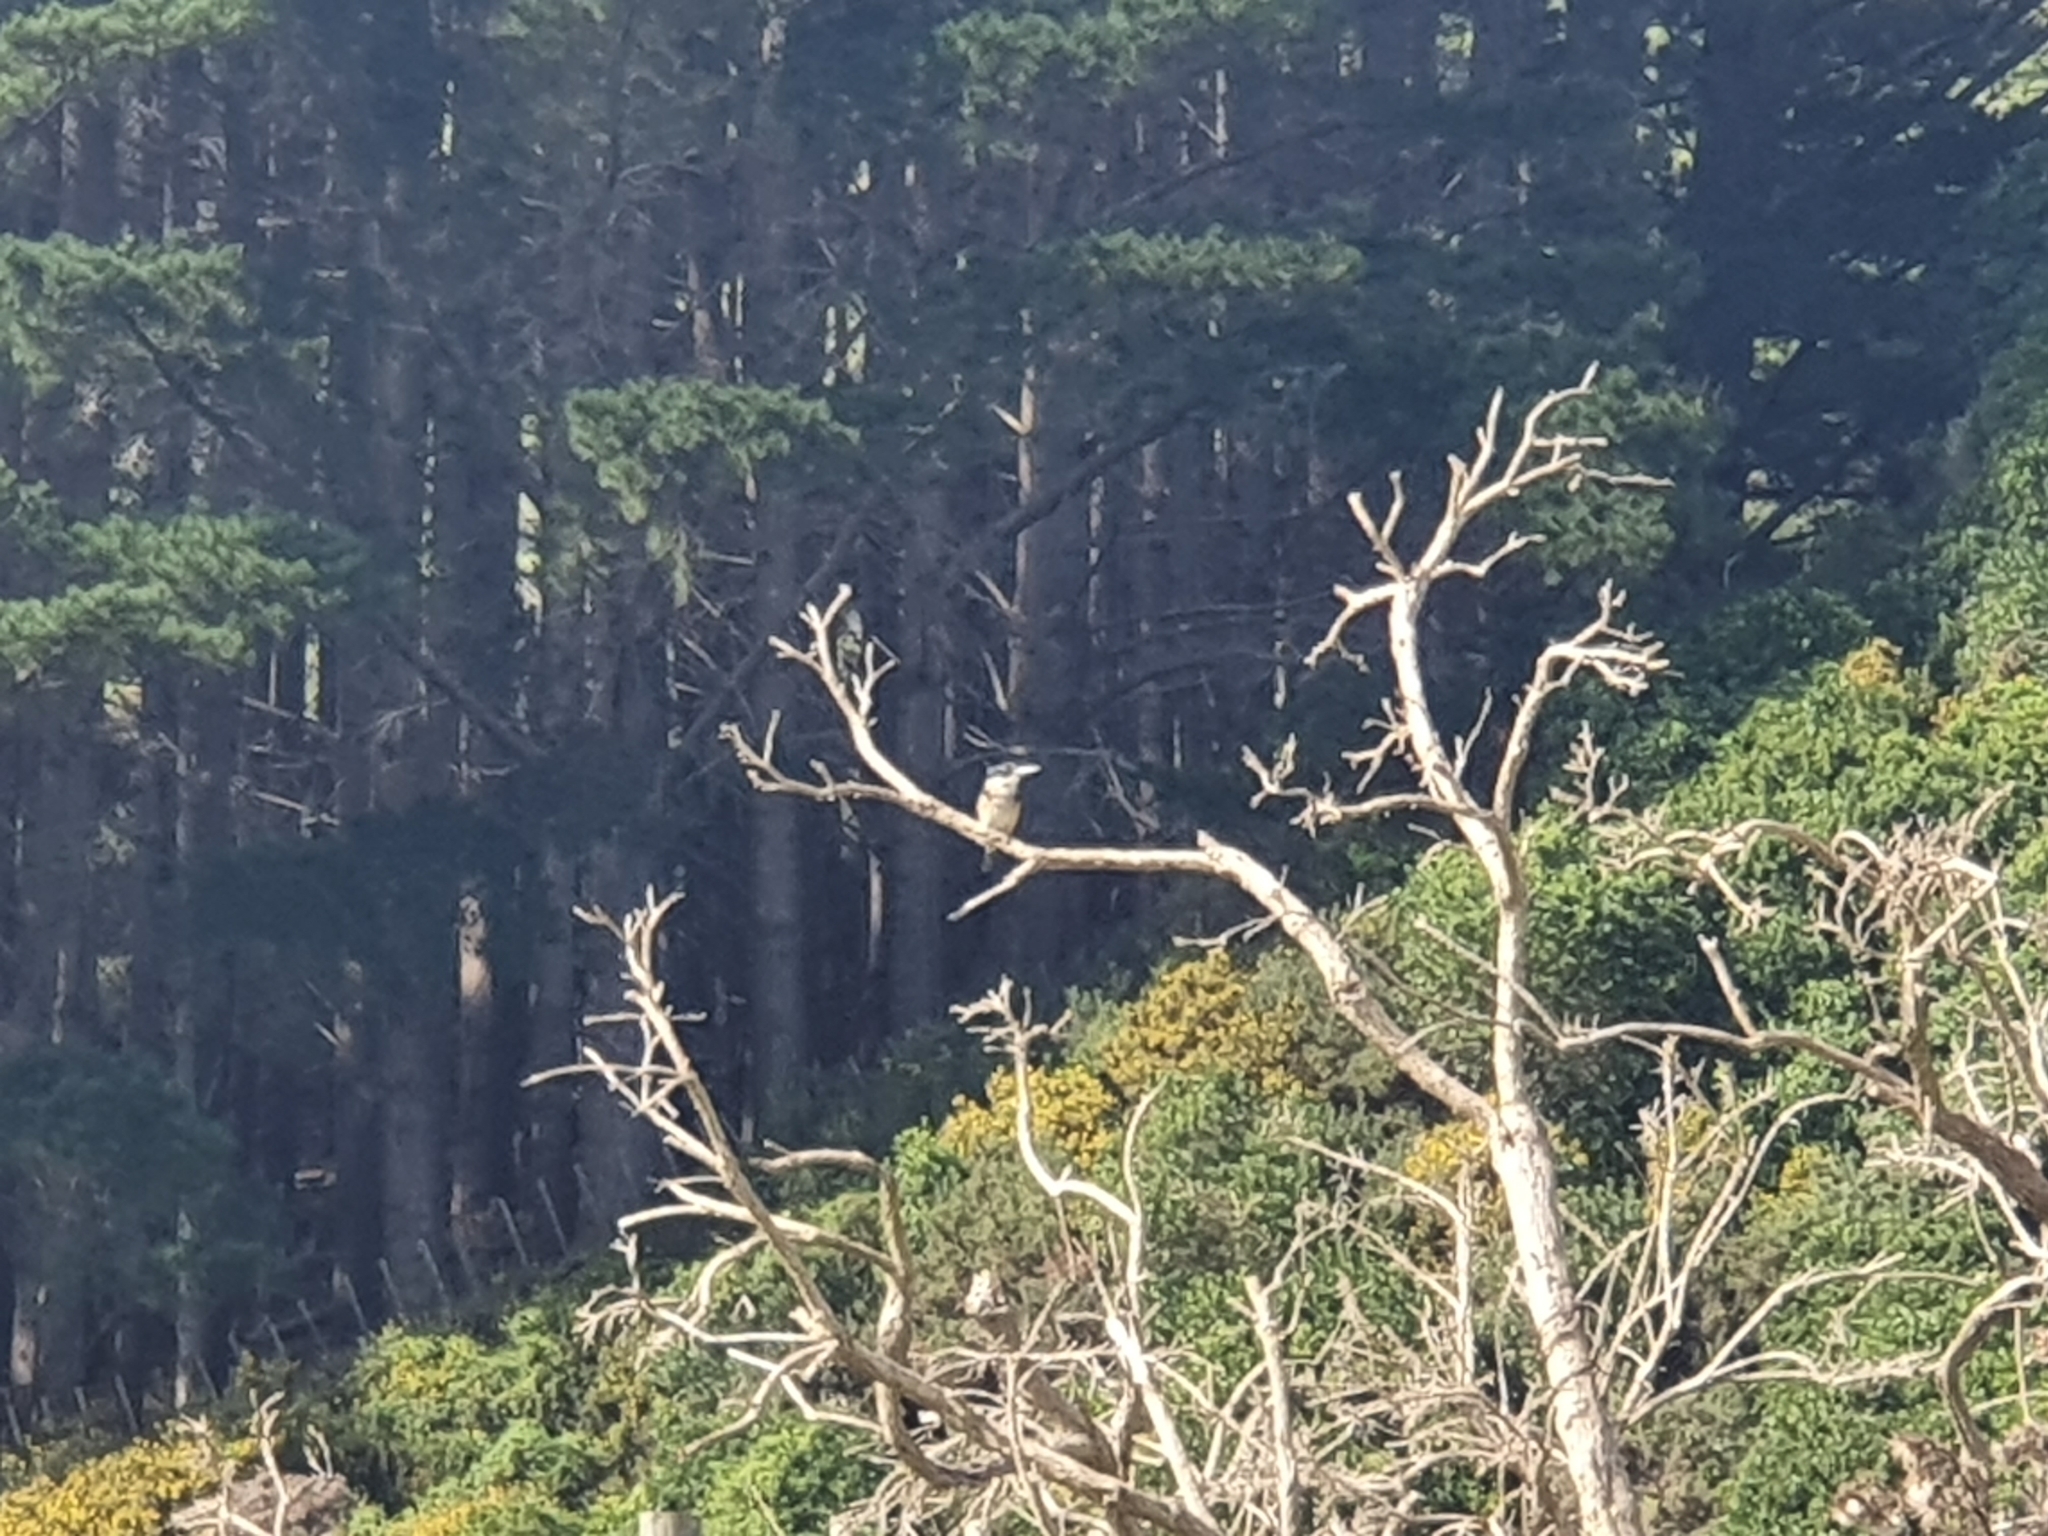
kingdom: Animalia
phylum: Chordata
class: Aves
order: Coraciiformes
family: Alcedinidae
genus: Todiramphus
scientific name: Todiramphus sanctus
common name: Sacred kingfisher
